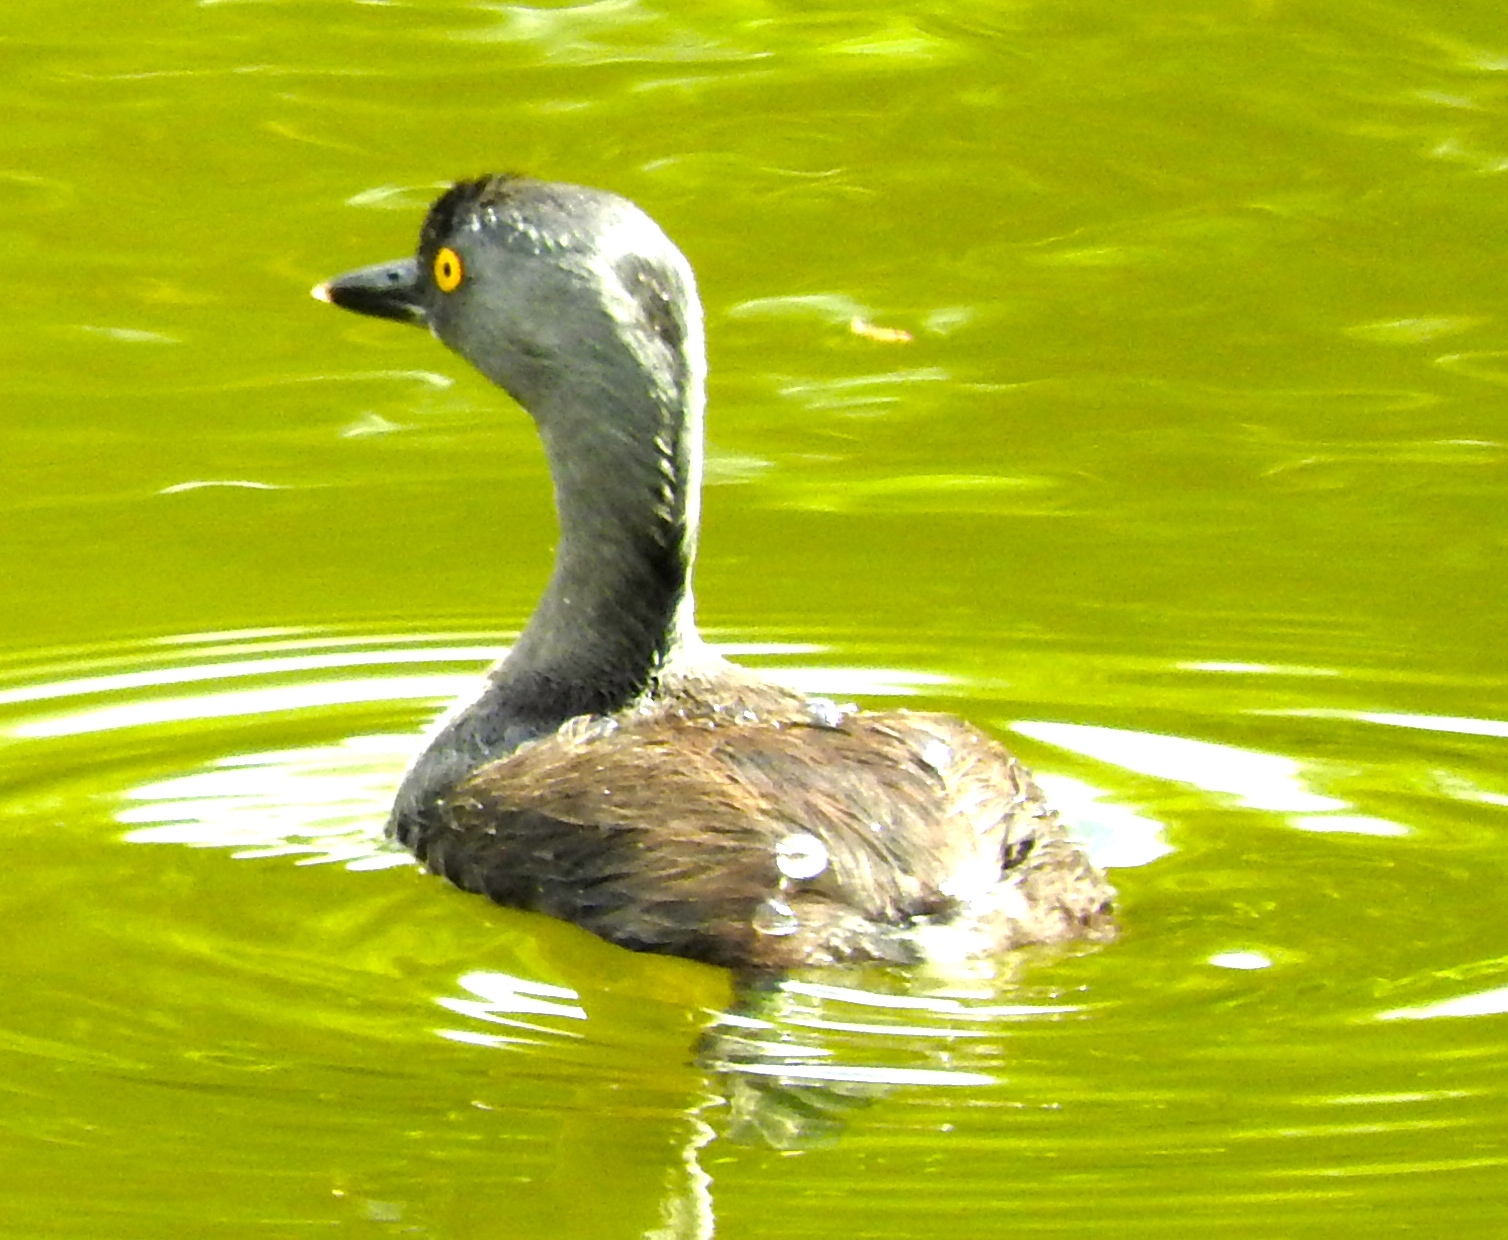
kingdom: Animalia
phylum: Chordata
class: Aves
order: Podicipediformes
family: Podicipedidae
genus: Tachybaptus
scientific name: Tachybaptus dominicus
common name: Least grebe
